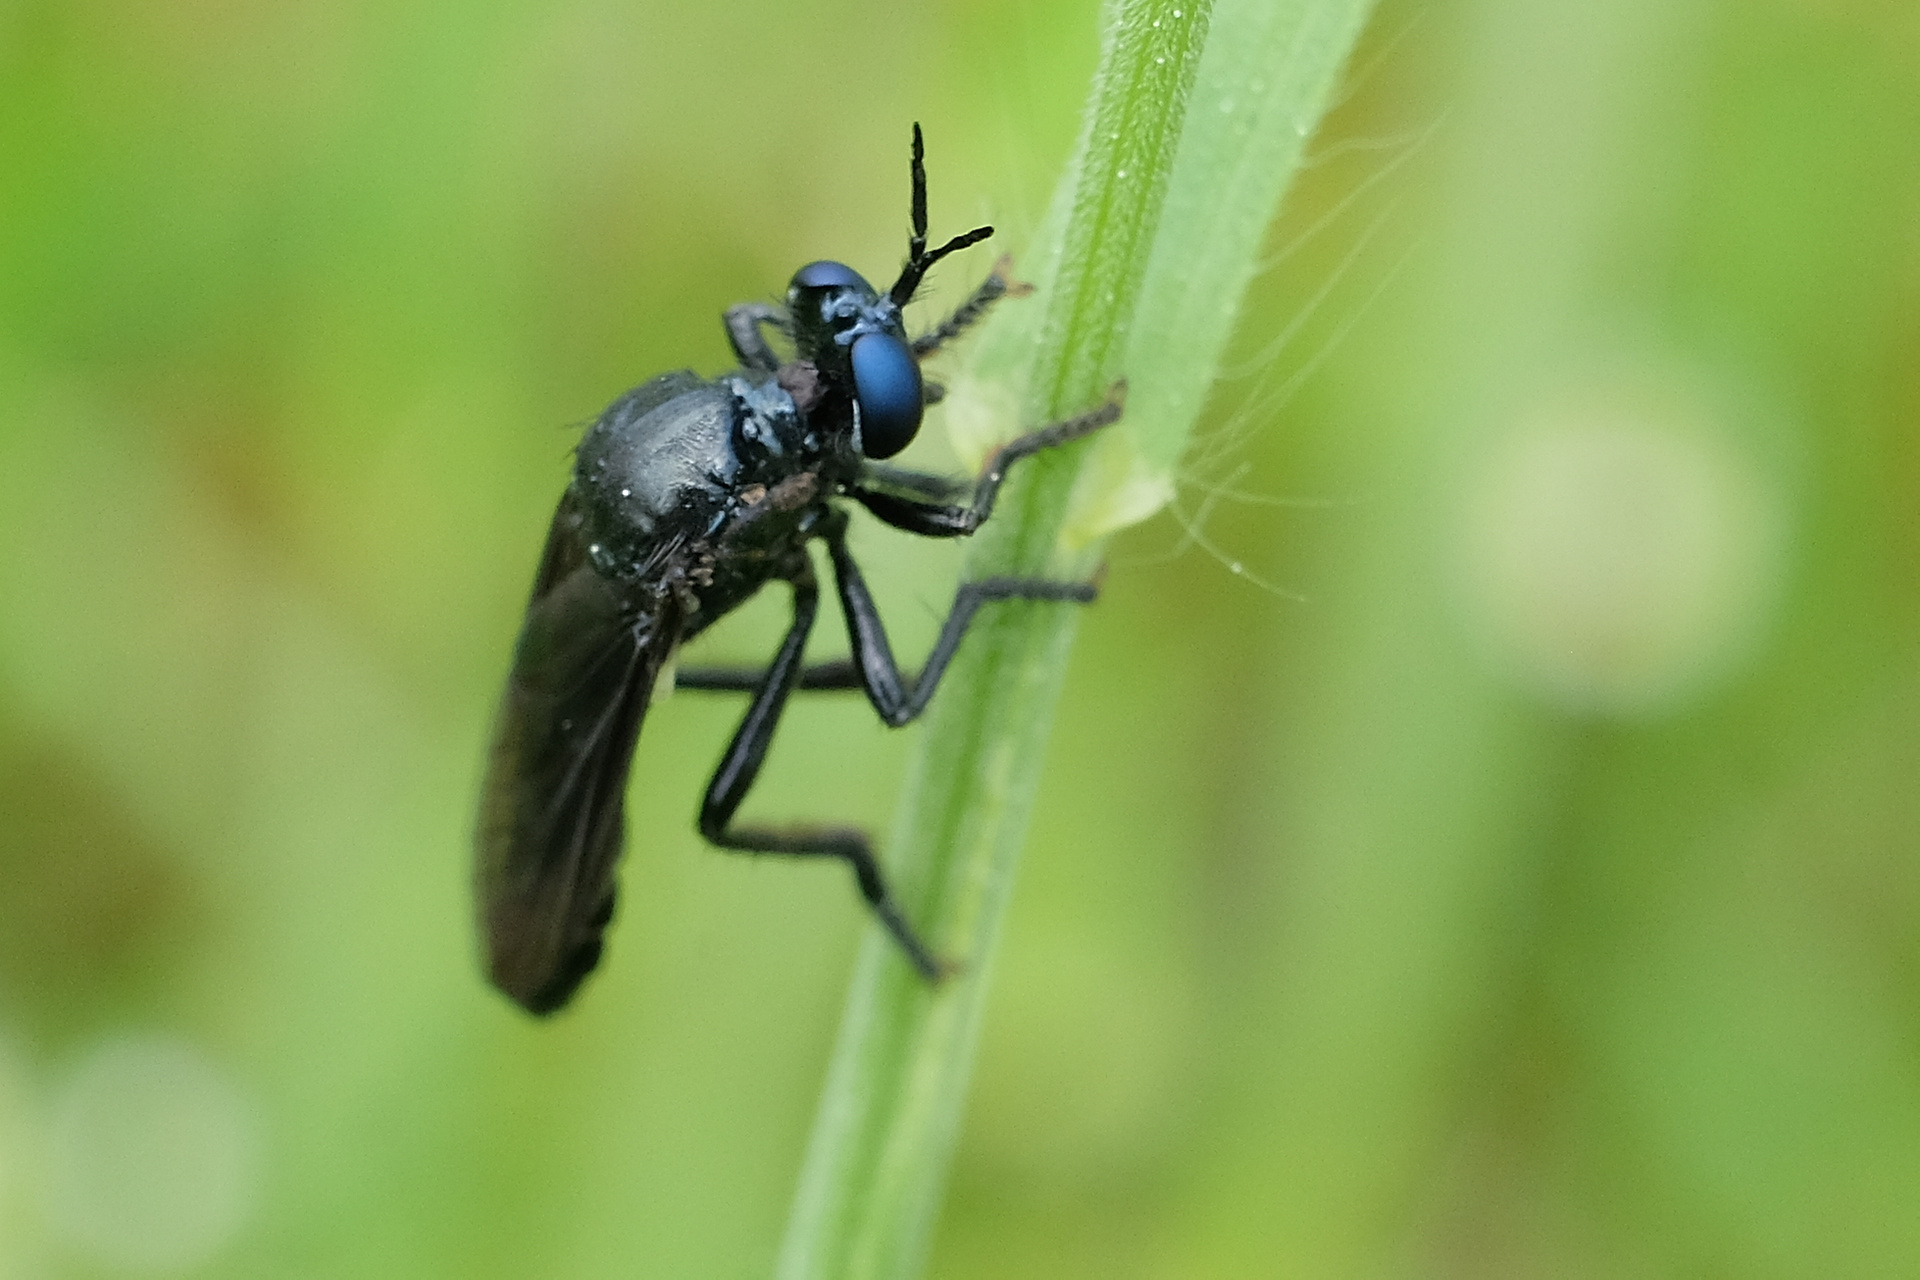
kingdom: Animalia
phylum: Arthropoda
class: Insecta
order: Diptera
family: Asilidae
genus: Dioctria
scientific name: Dioctria atricapilla
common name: Violet black-legged
